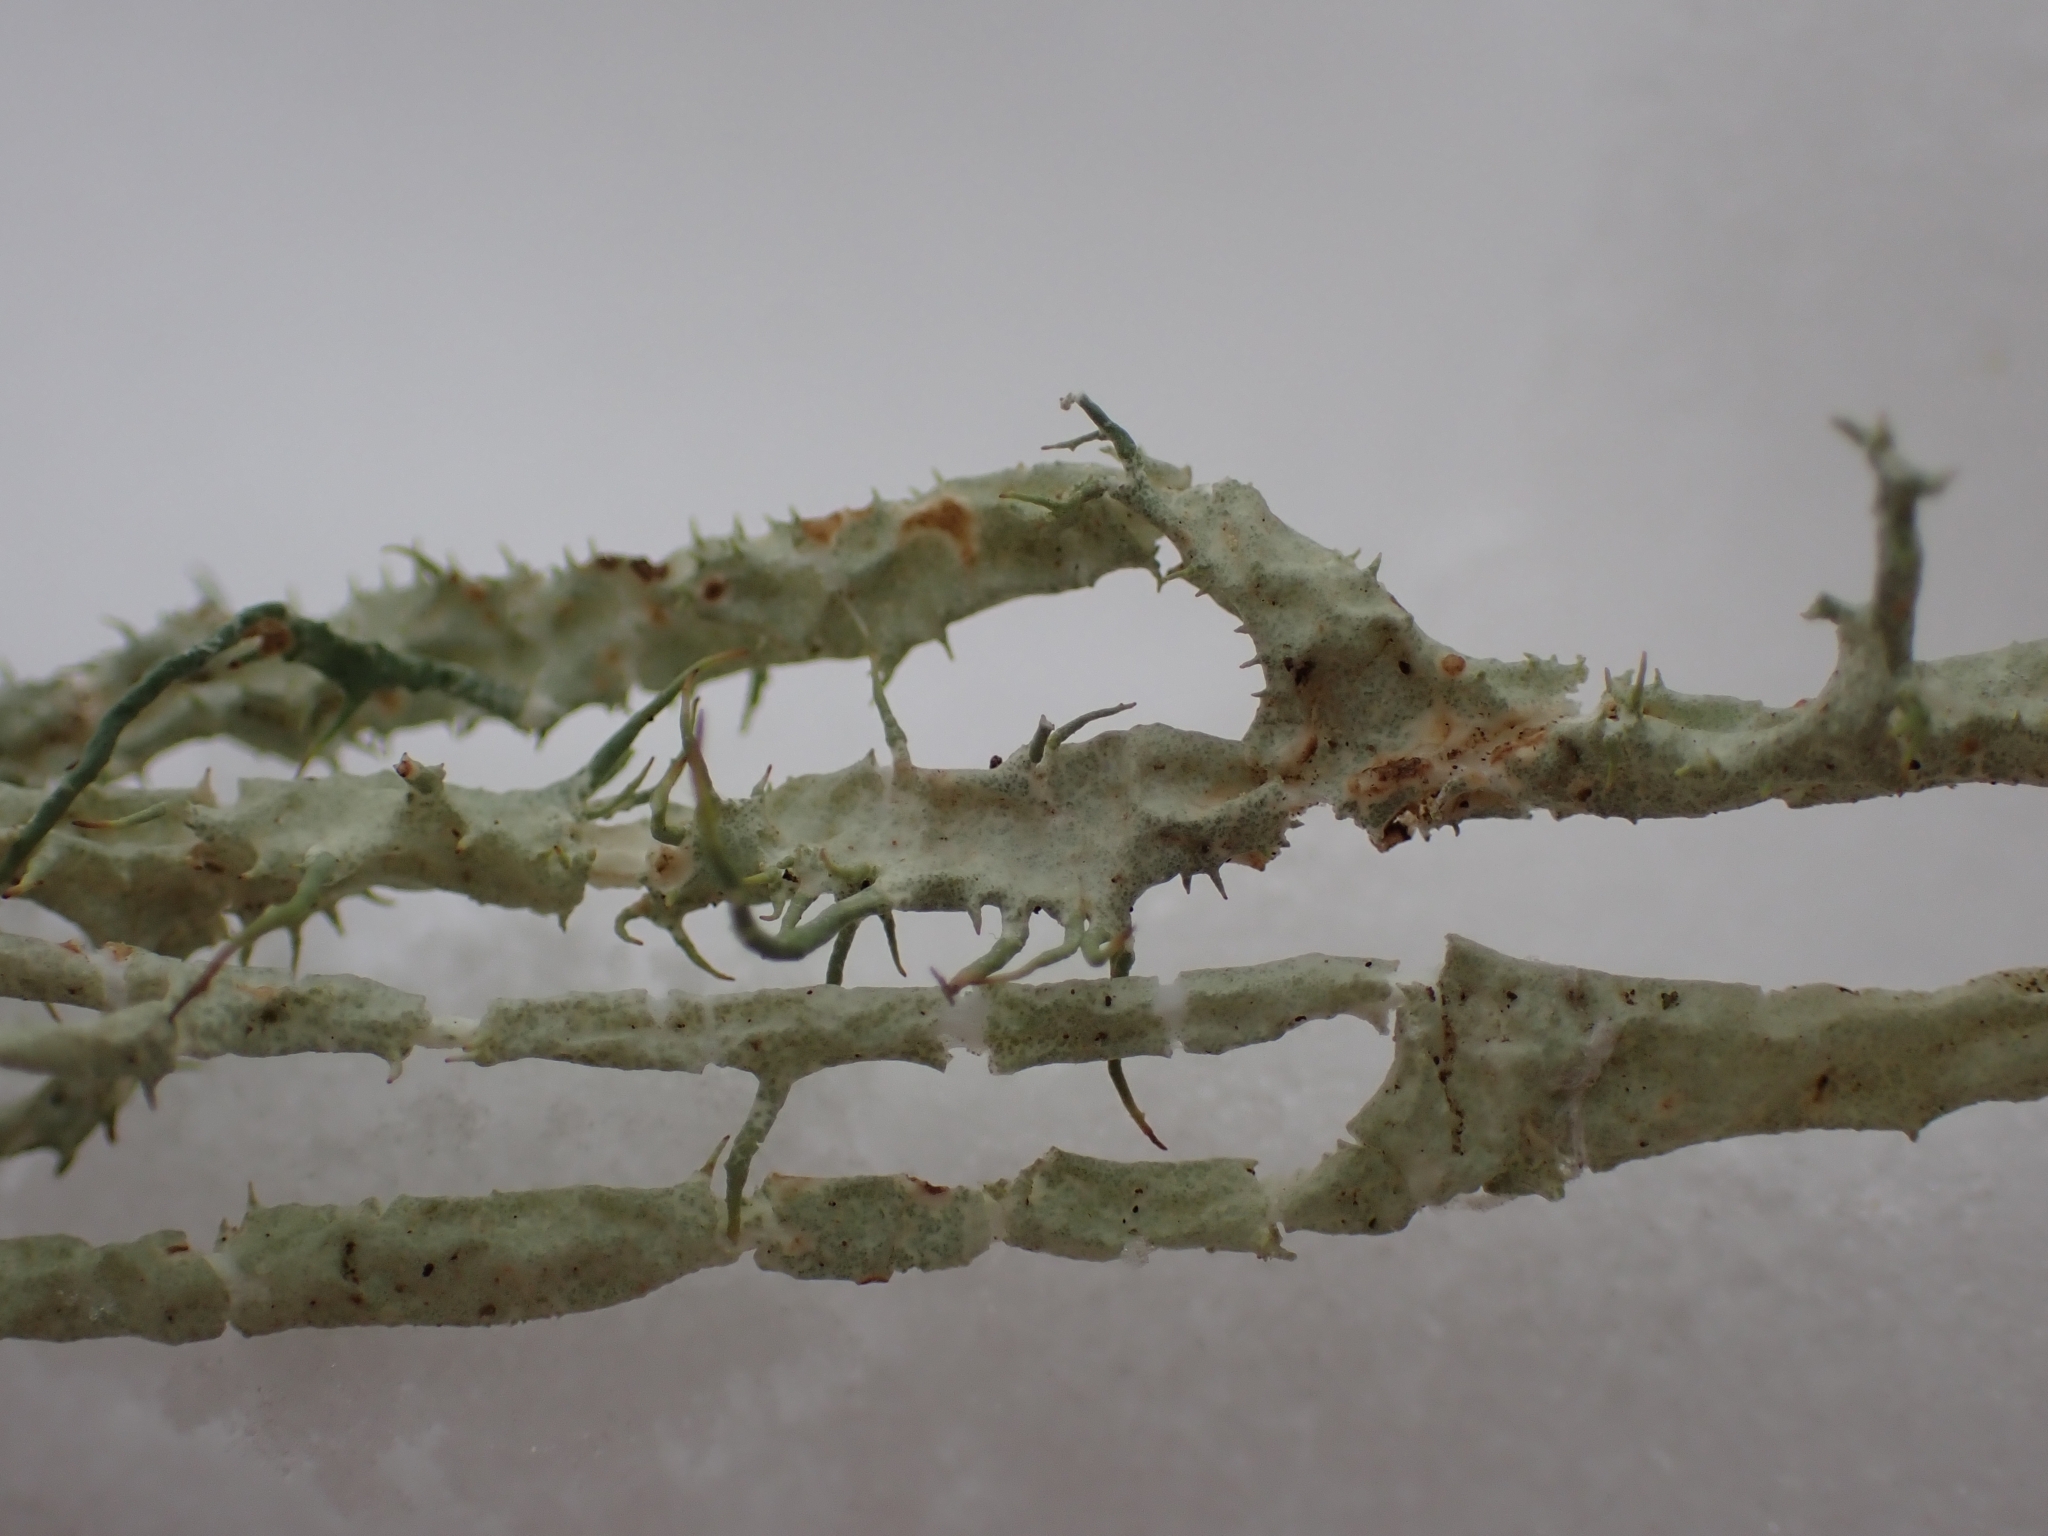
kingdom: Fungi
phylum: Ascomycota
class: Lecanoromycetes
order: Lecanorales
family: Parmeliaceae
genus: Evernia
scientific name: Evernia divaricata
